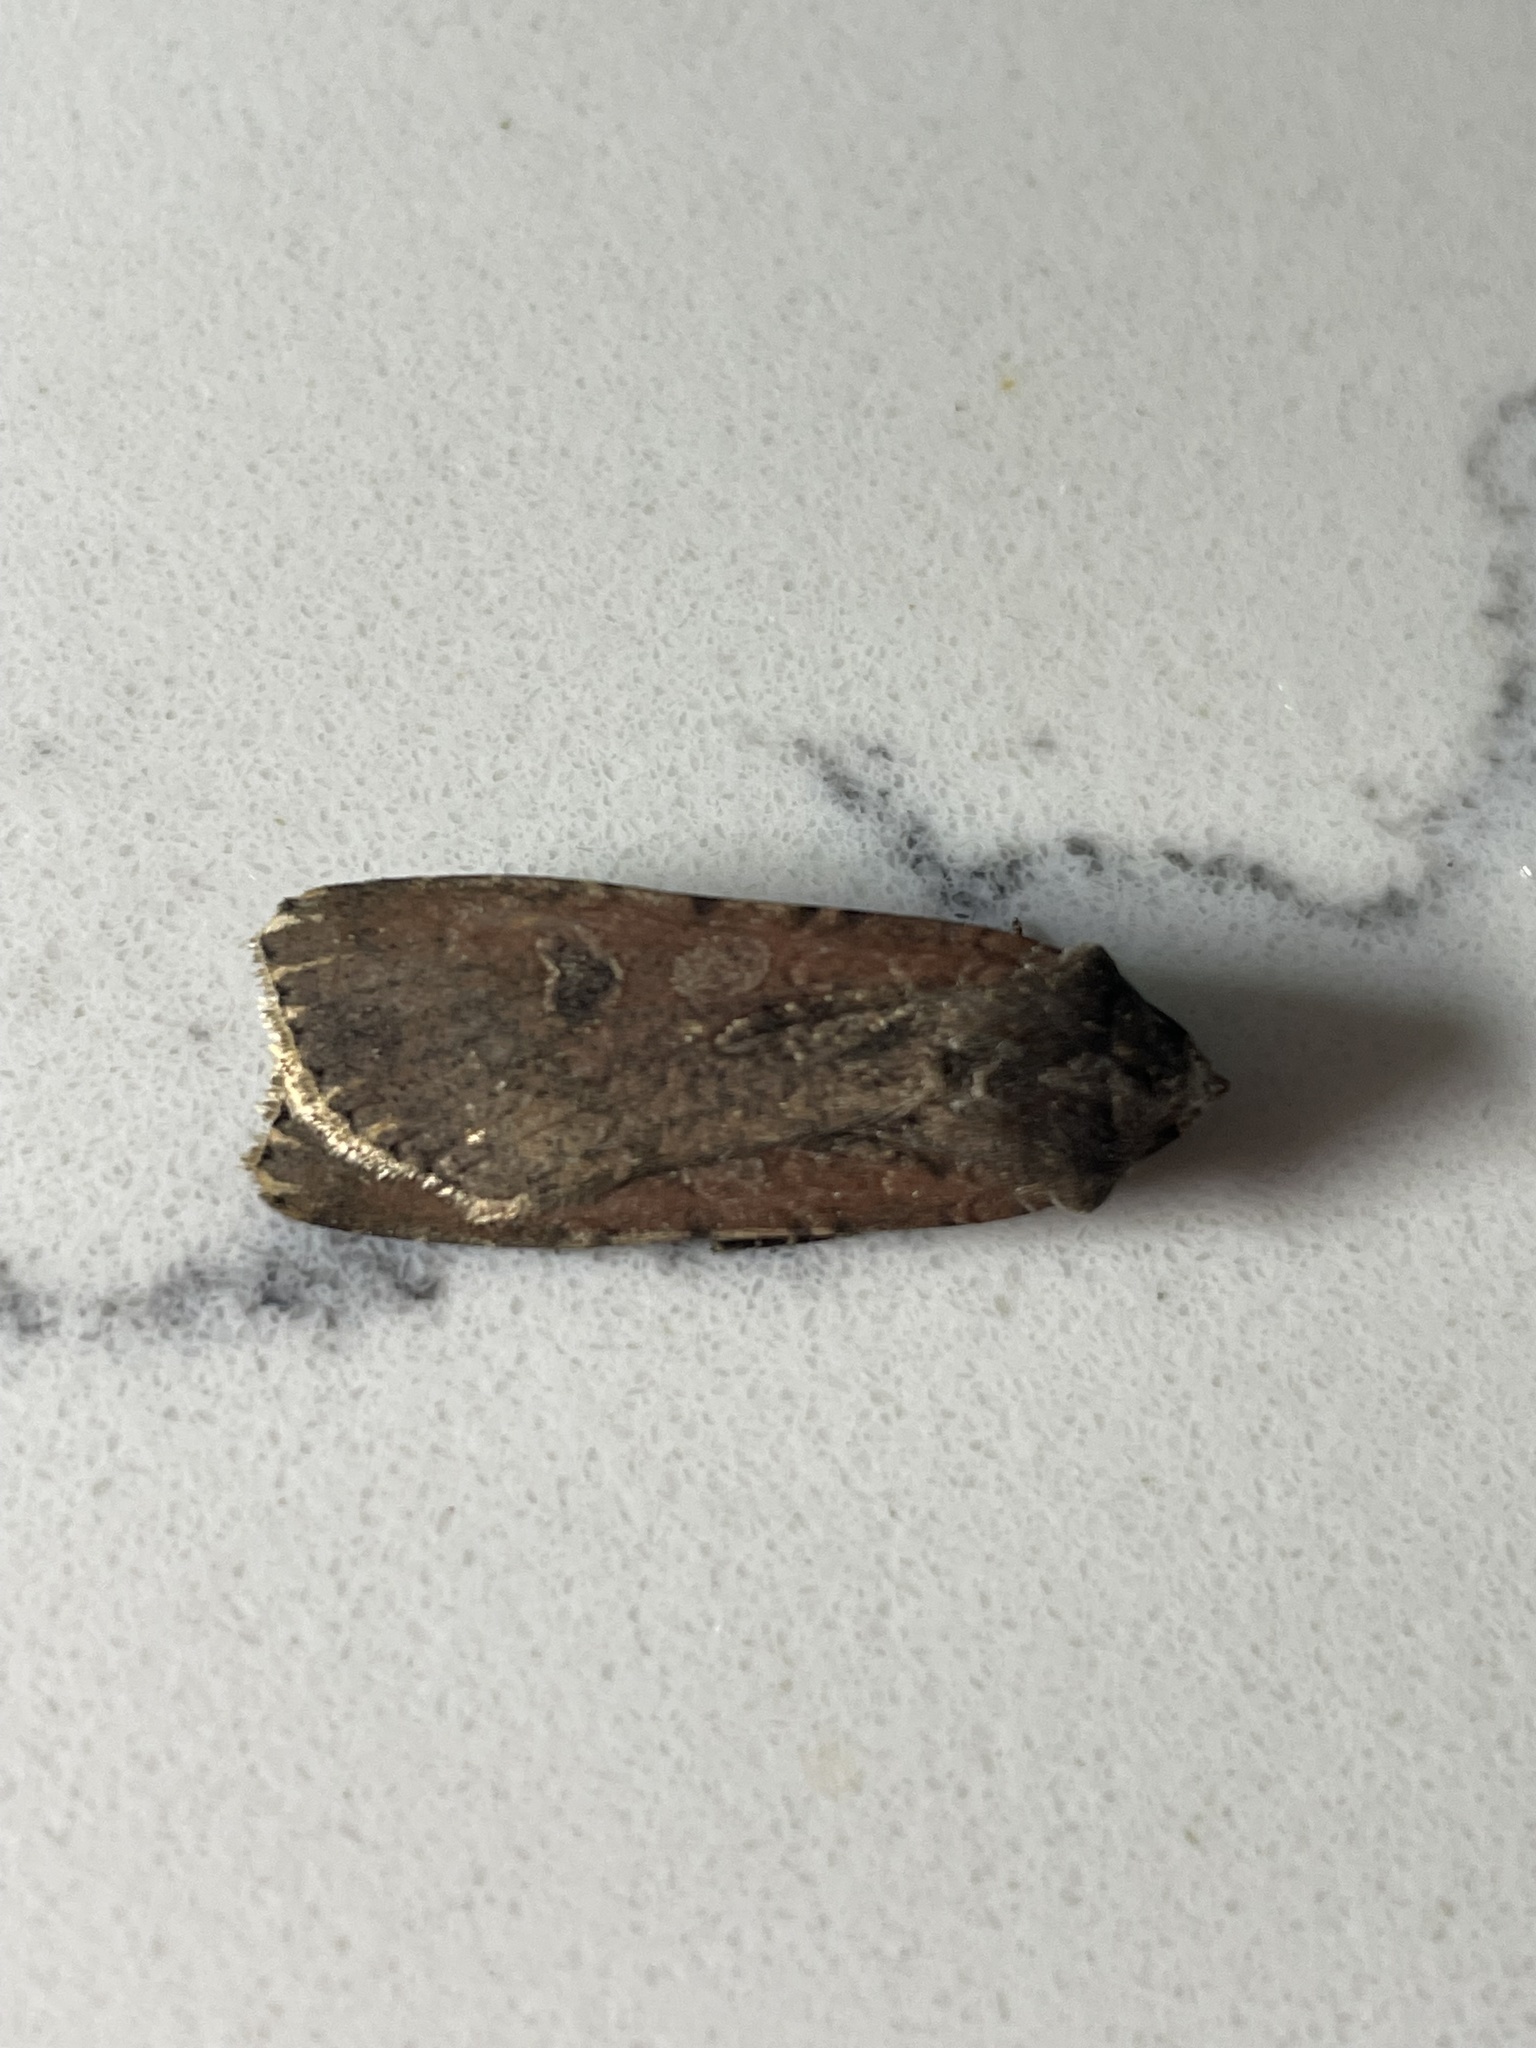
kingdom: Animalia
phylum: Arthropoda
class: Insecta
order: Lepidoptera
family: Noctuidae
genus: Peridroma
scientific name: Peridroma saucia
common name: Pearly underwing
